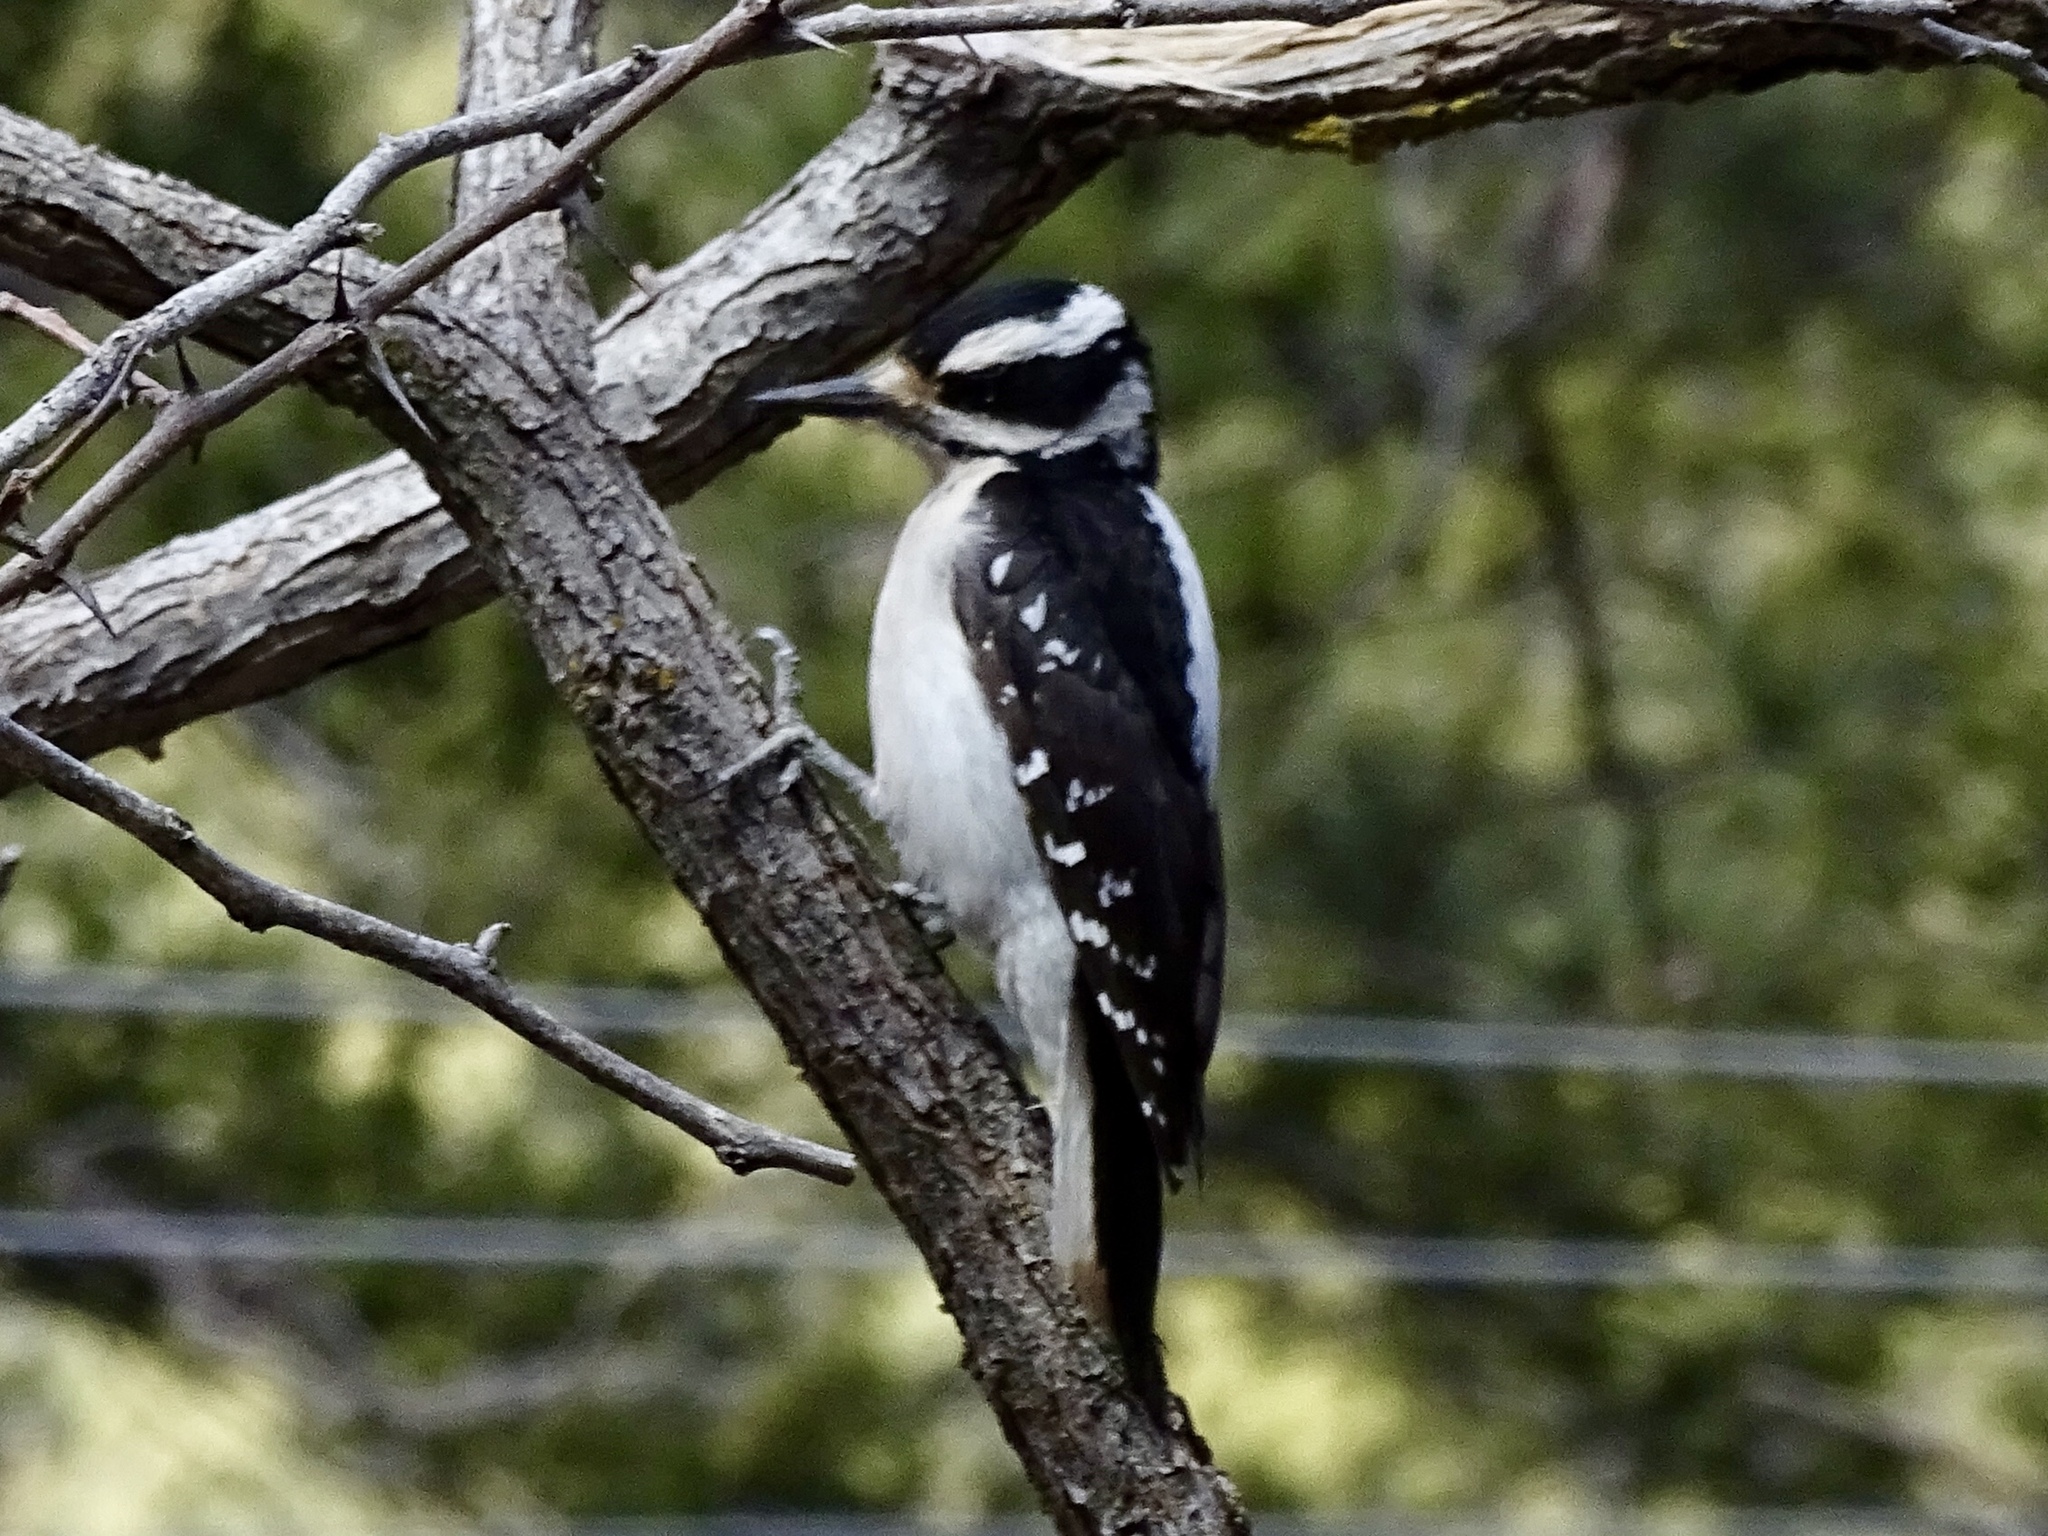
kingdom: Animalia
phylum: Chordata
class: Aves
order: Piciformes
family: Picidae
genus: Leuconotopicus
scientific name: Leuconotopicus villosus
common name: Hairy woodpecker
